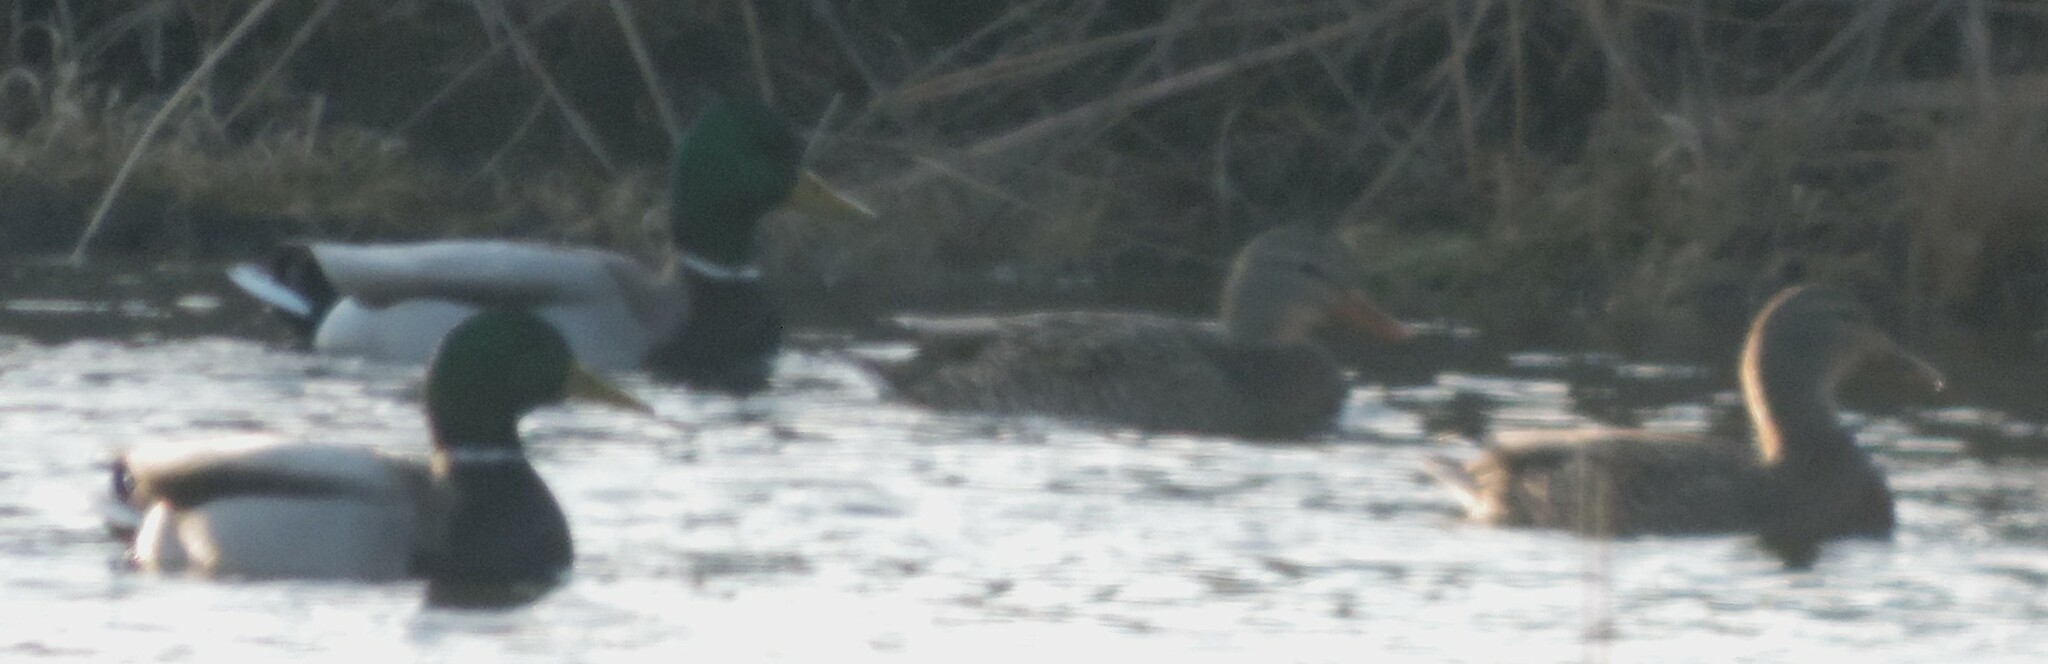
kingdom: Animalia
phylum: Chordata
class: Aves
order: Anseriformes
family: Anatidae
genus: Anas
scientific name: Anas platyrhynchos
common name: Mallard
